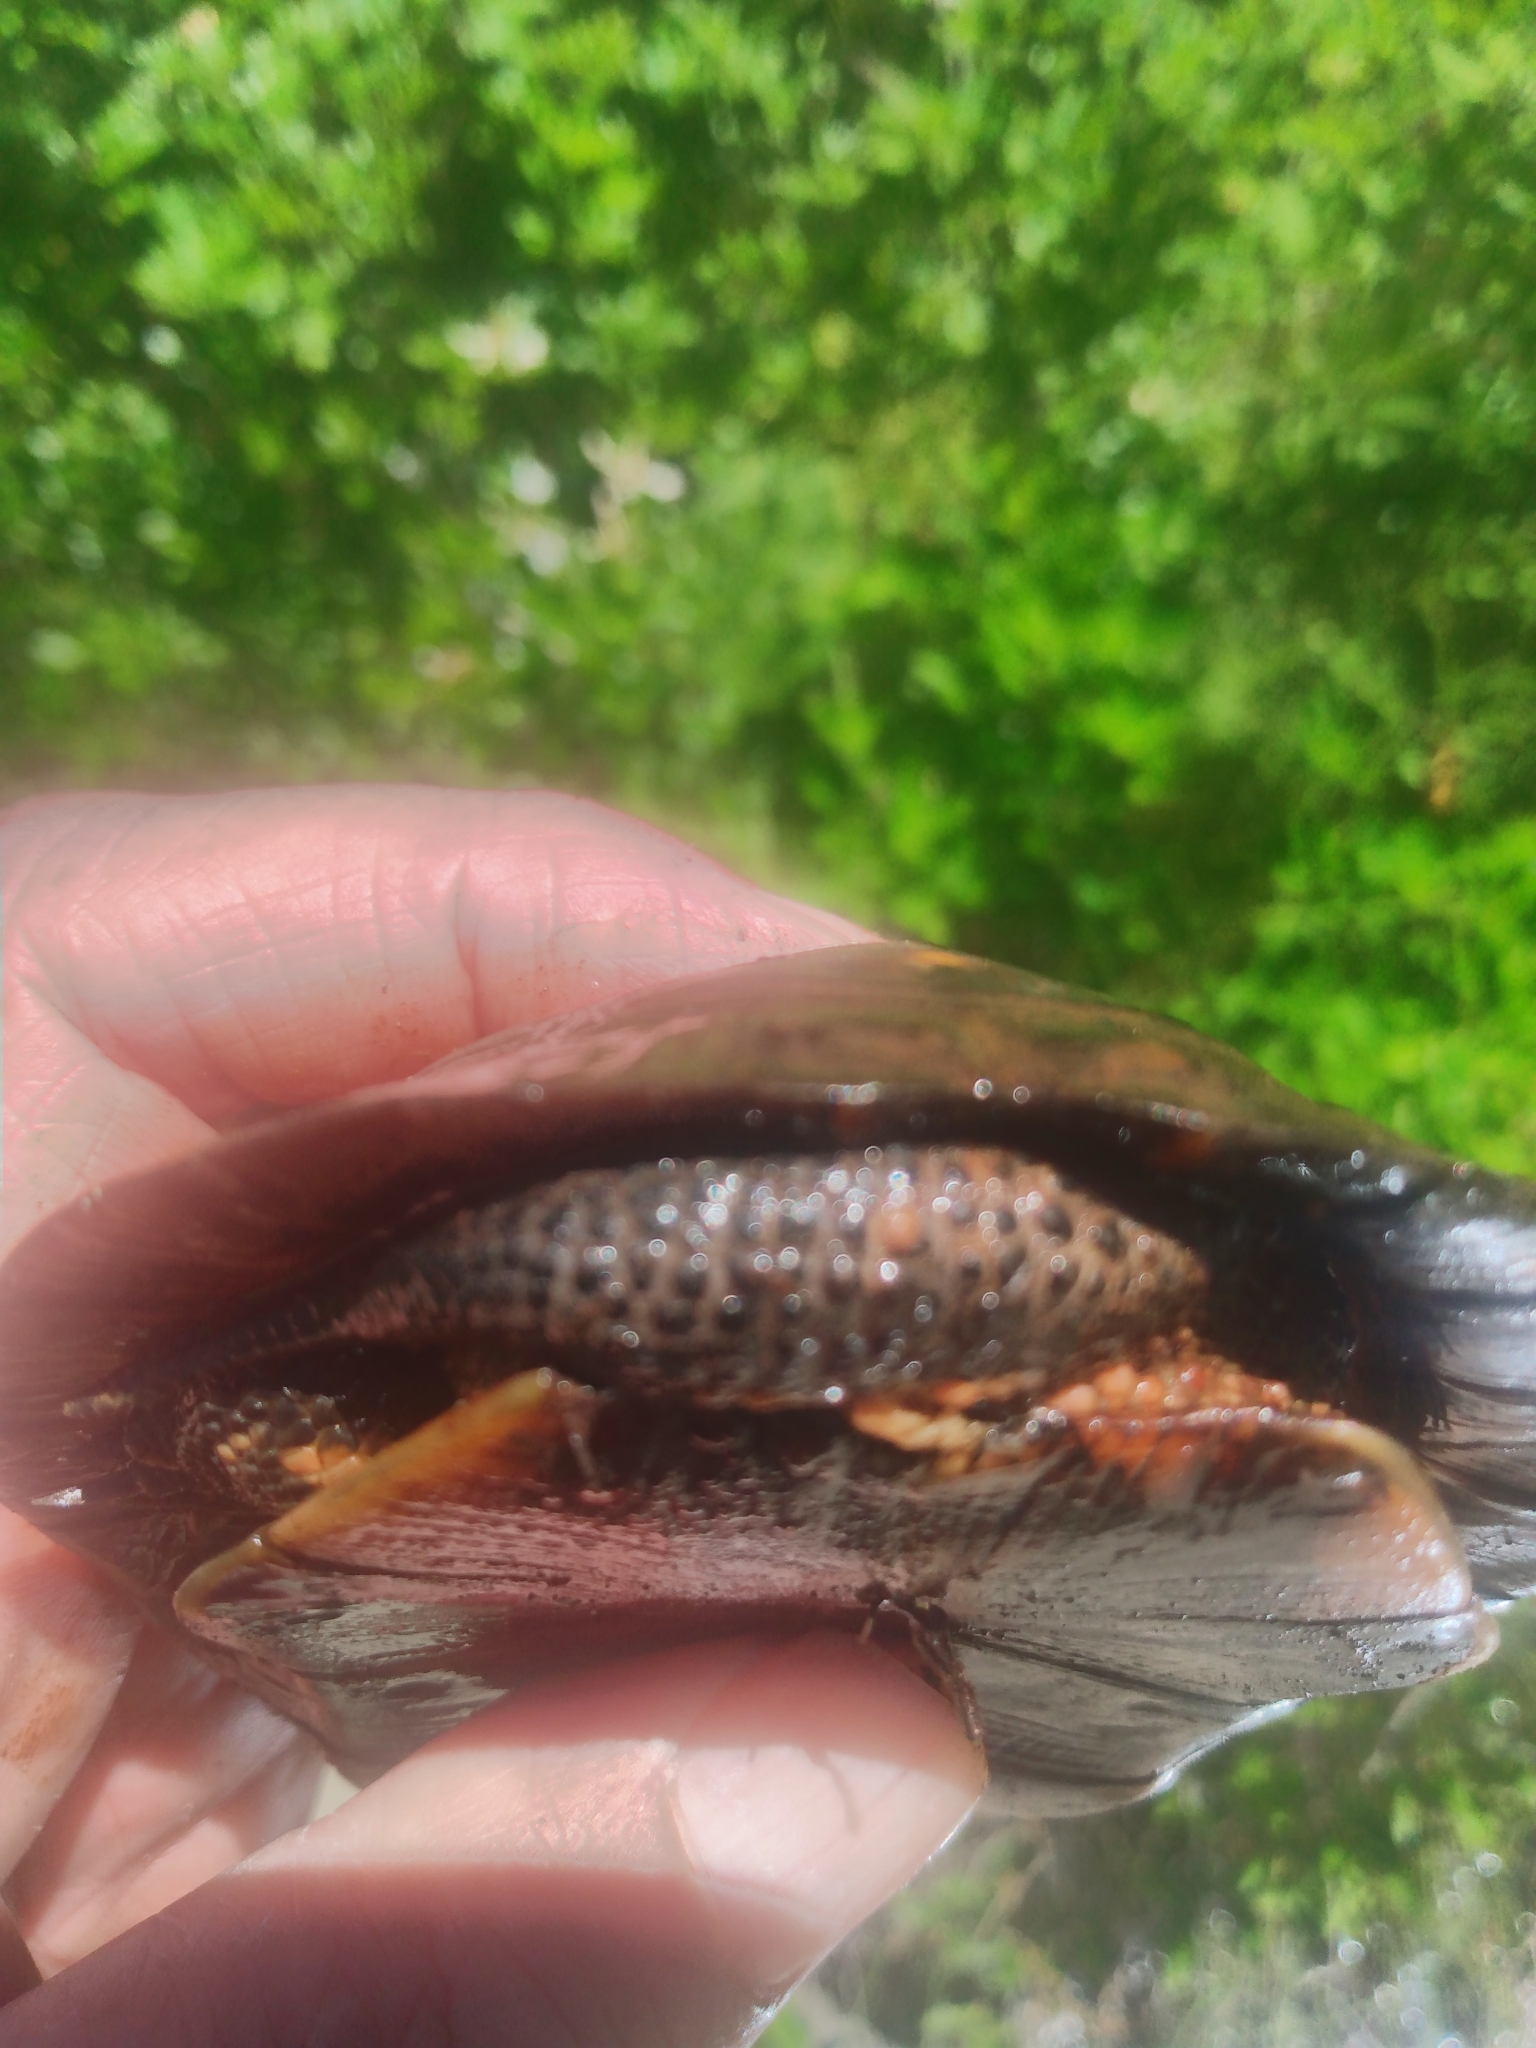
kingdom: Animalia
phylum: Chordata
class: Testudines
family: Emydidae
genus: Clemmys
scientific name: Clemmys guttata
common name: Spotted turtle
